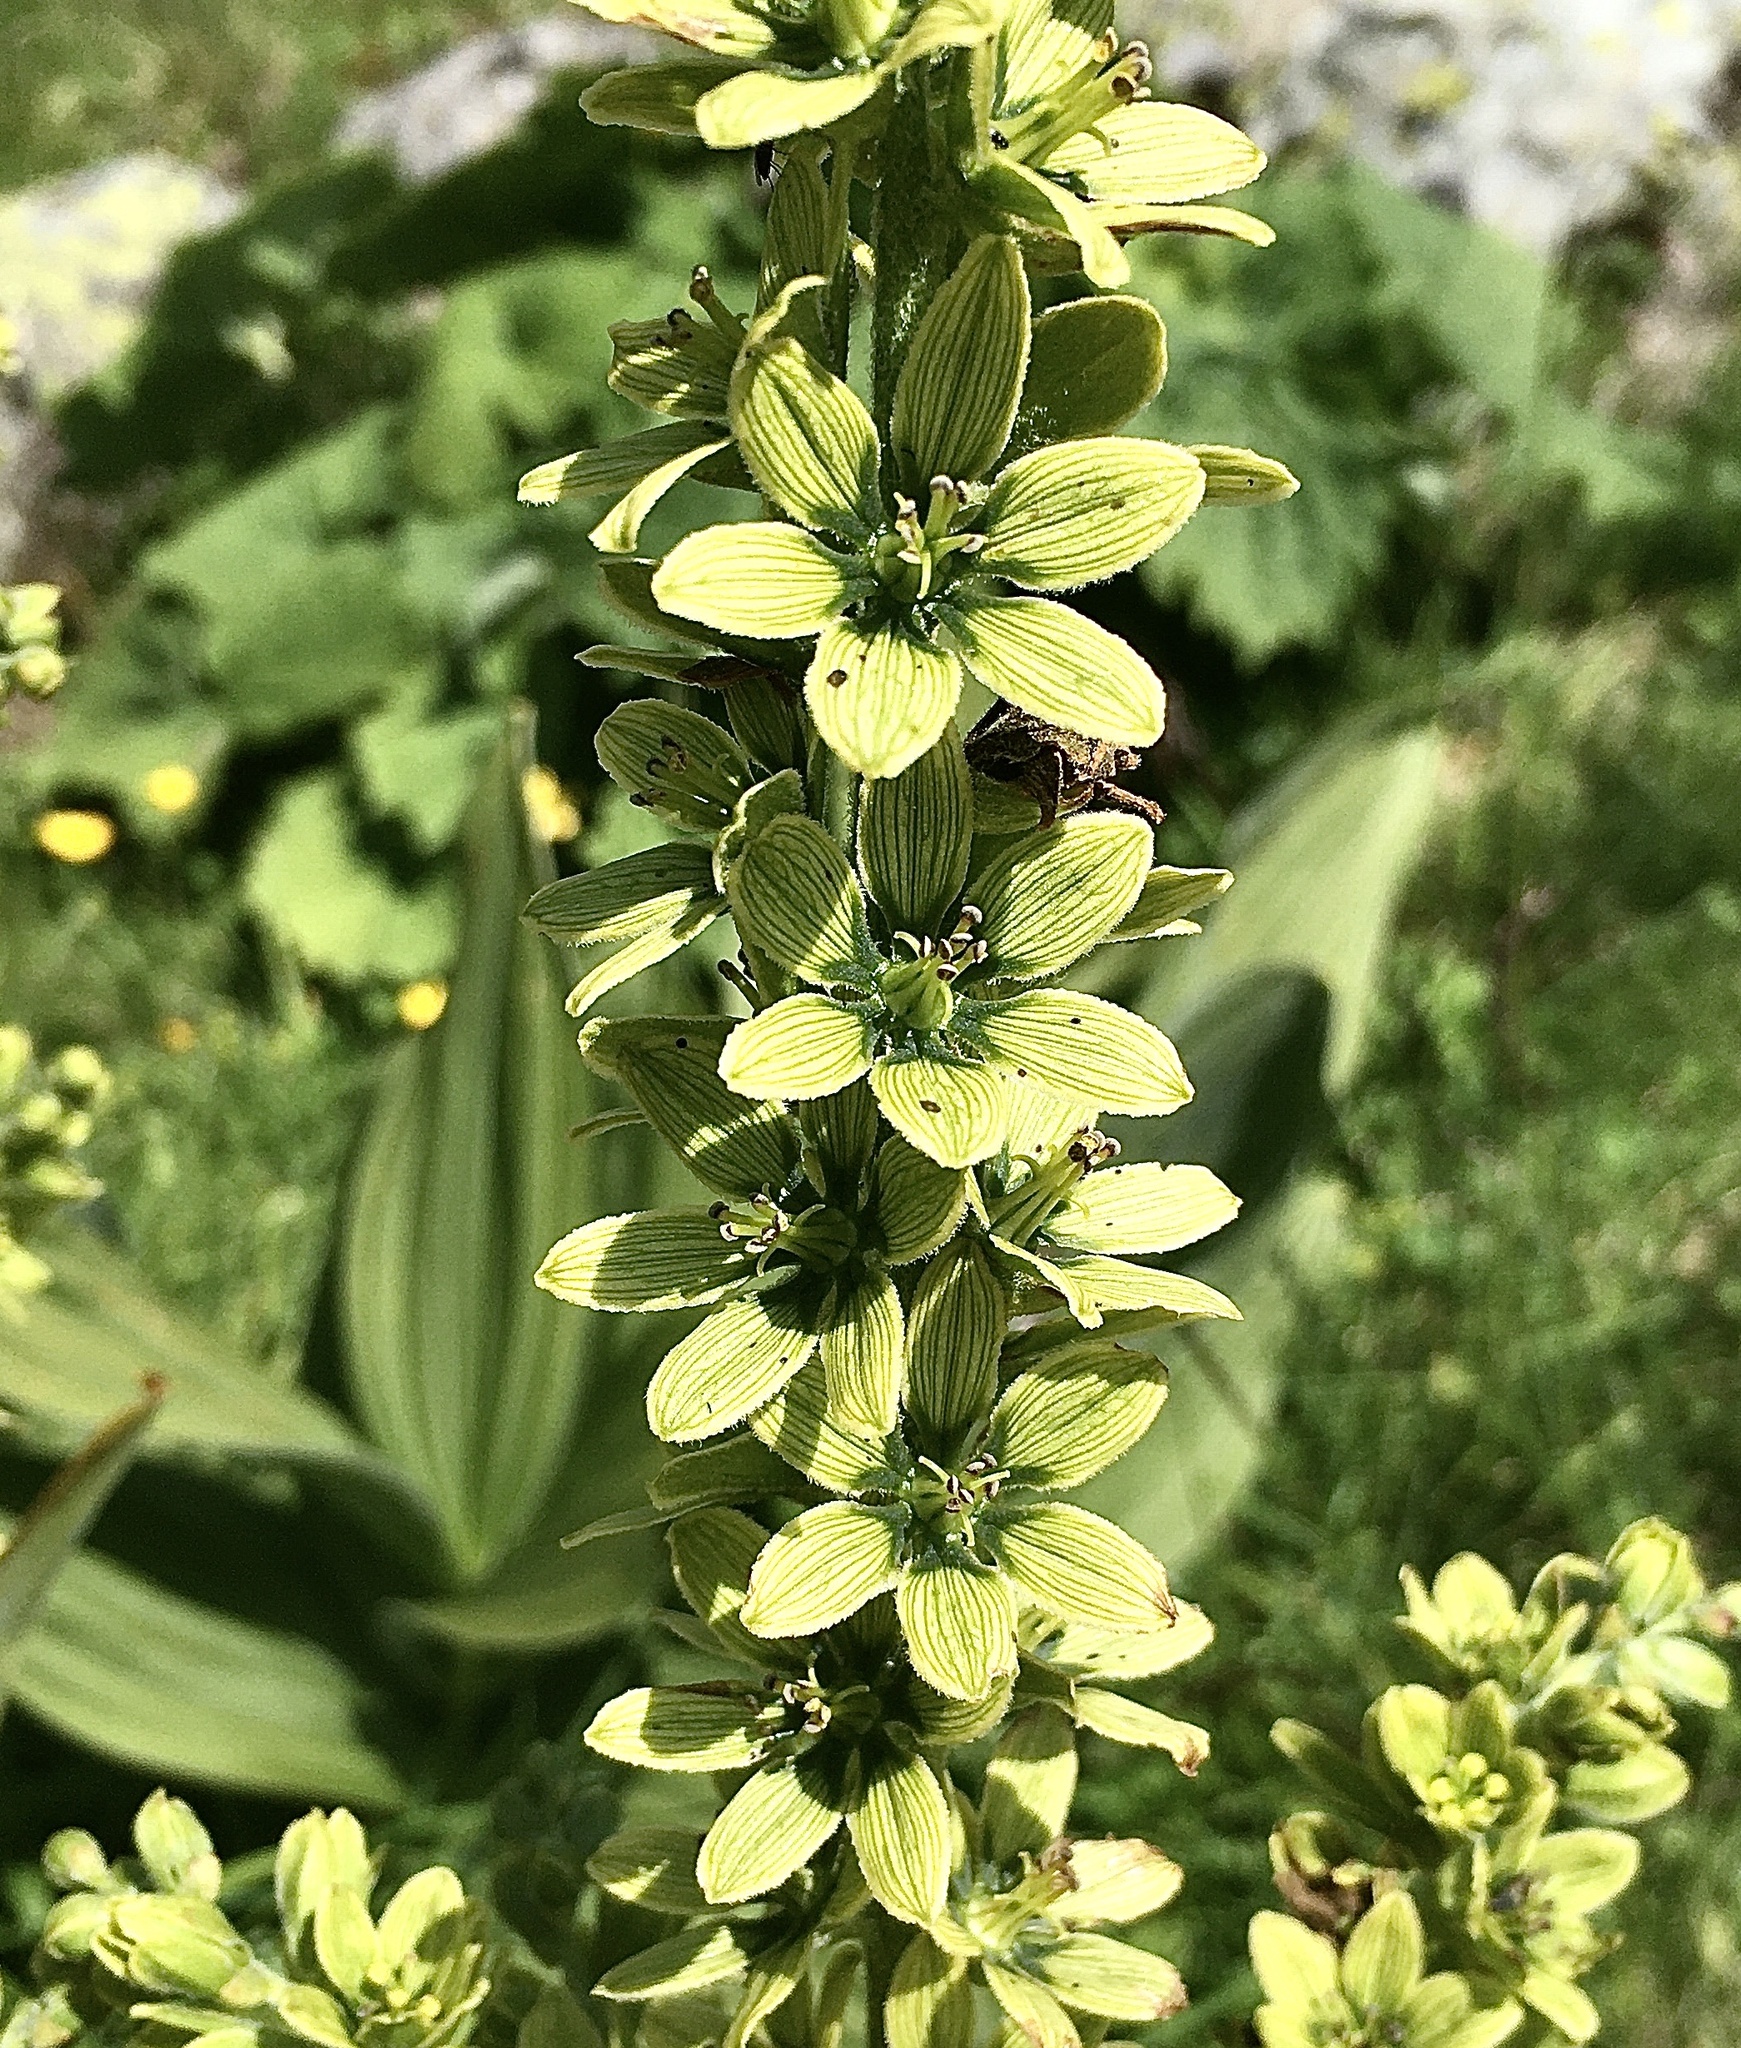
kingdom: Plantae
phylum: Tracheophyta
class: Liliopsida
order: Liliales
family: Melanthiaceae
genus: Veratrum
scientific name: Veratrum lobelianum
